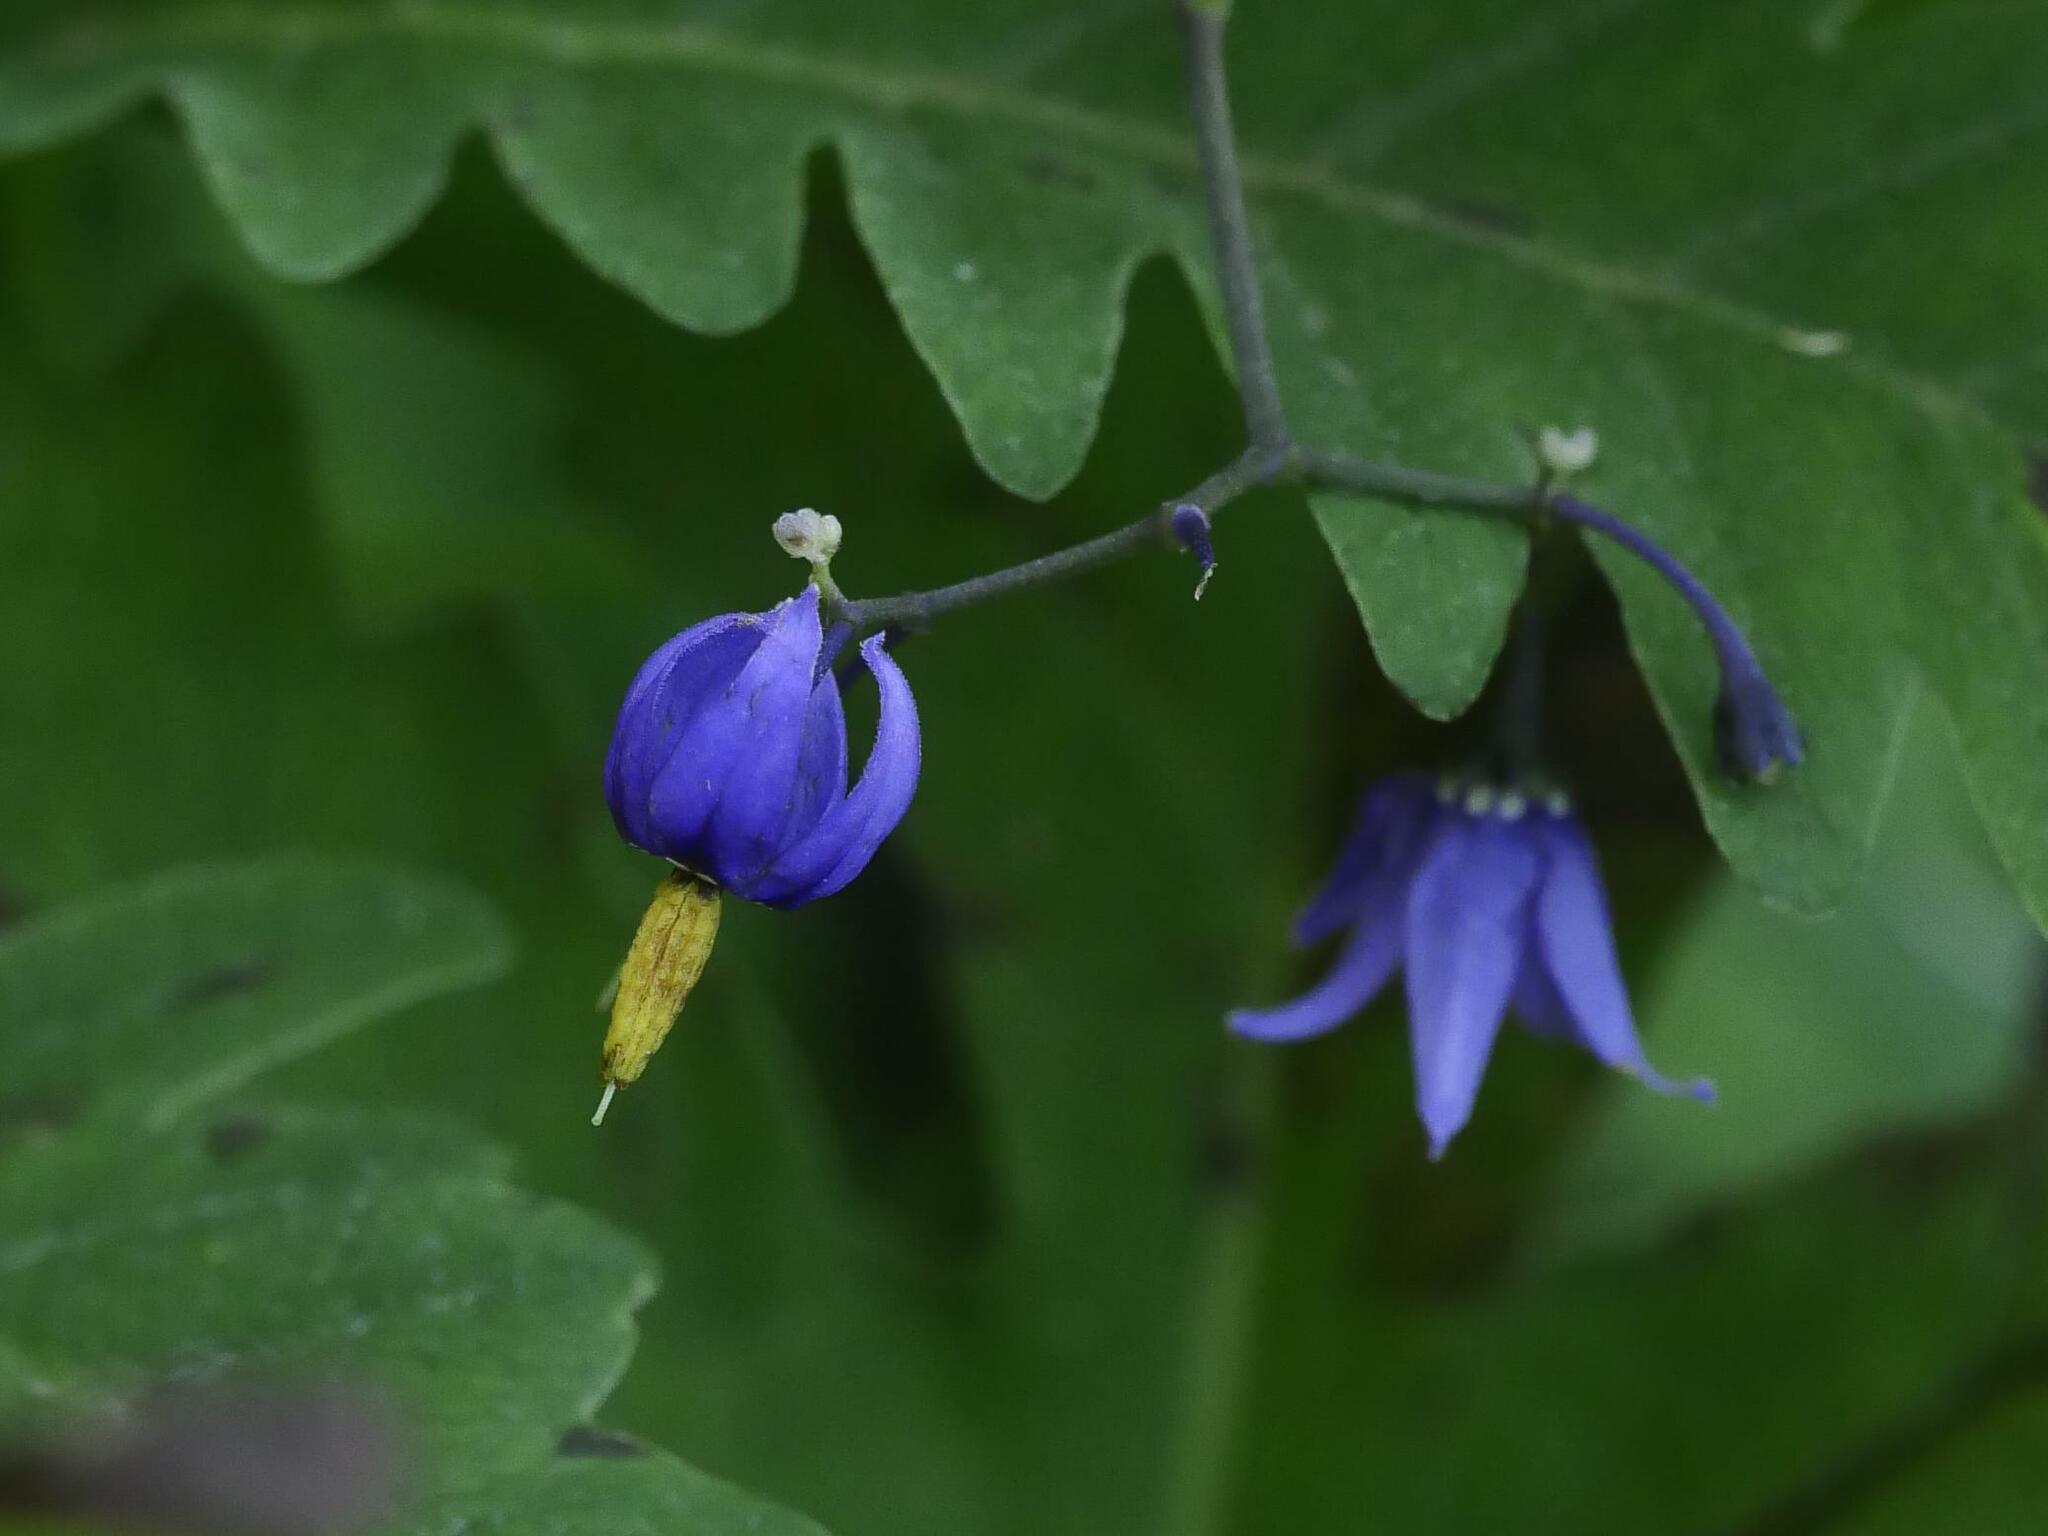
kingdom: Plantae
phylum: Tracheophyta
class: Magnoliopsida
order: Solanales
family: Solanaceae
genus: Solanum
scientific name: Solanum dulcamara
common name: Climbing nightshade
